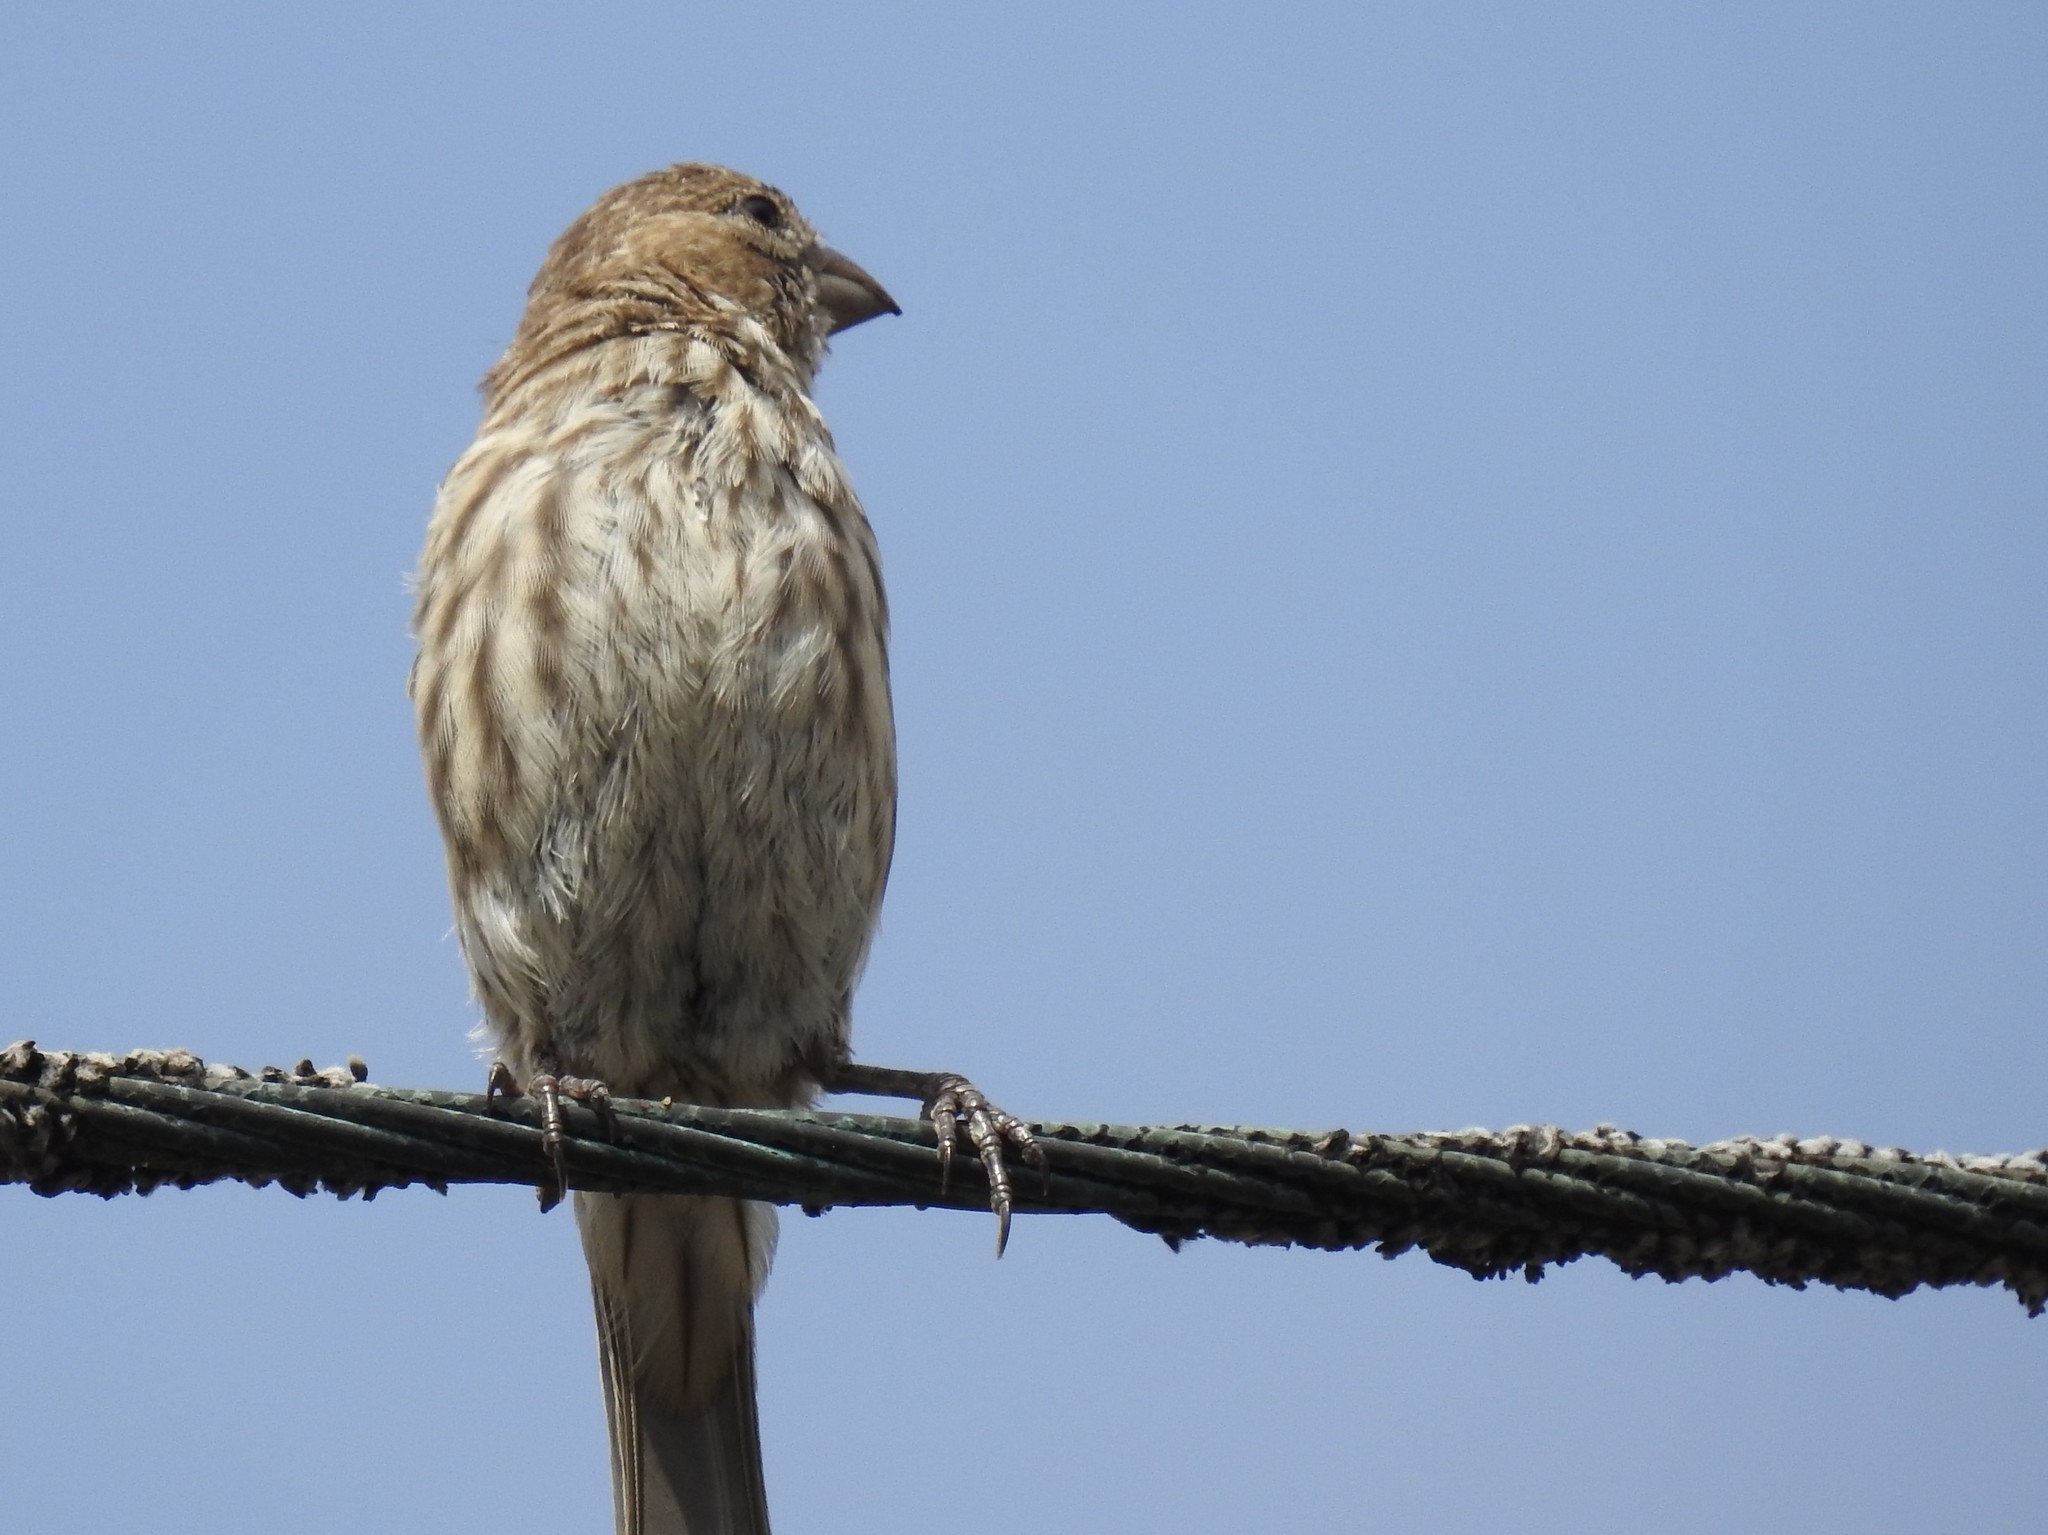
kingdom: Animalia
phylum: Chordata
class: Aves
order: Passeriformes
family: Fringillidae
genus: Haemorhous
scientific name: Haemorhous mexicanus
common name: House finch
